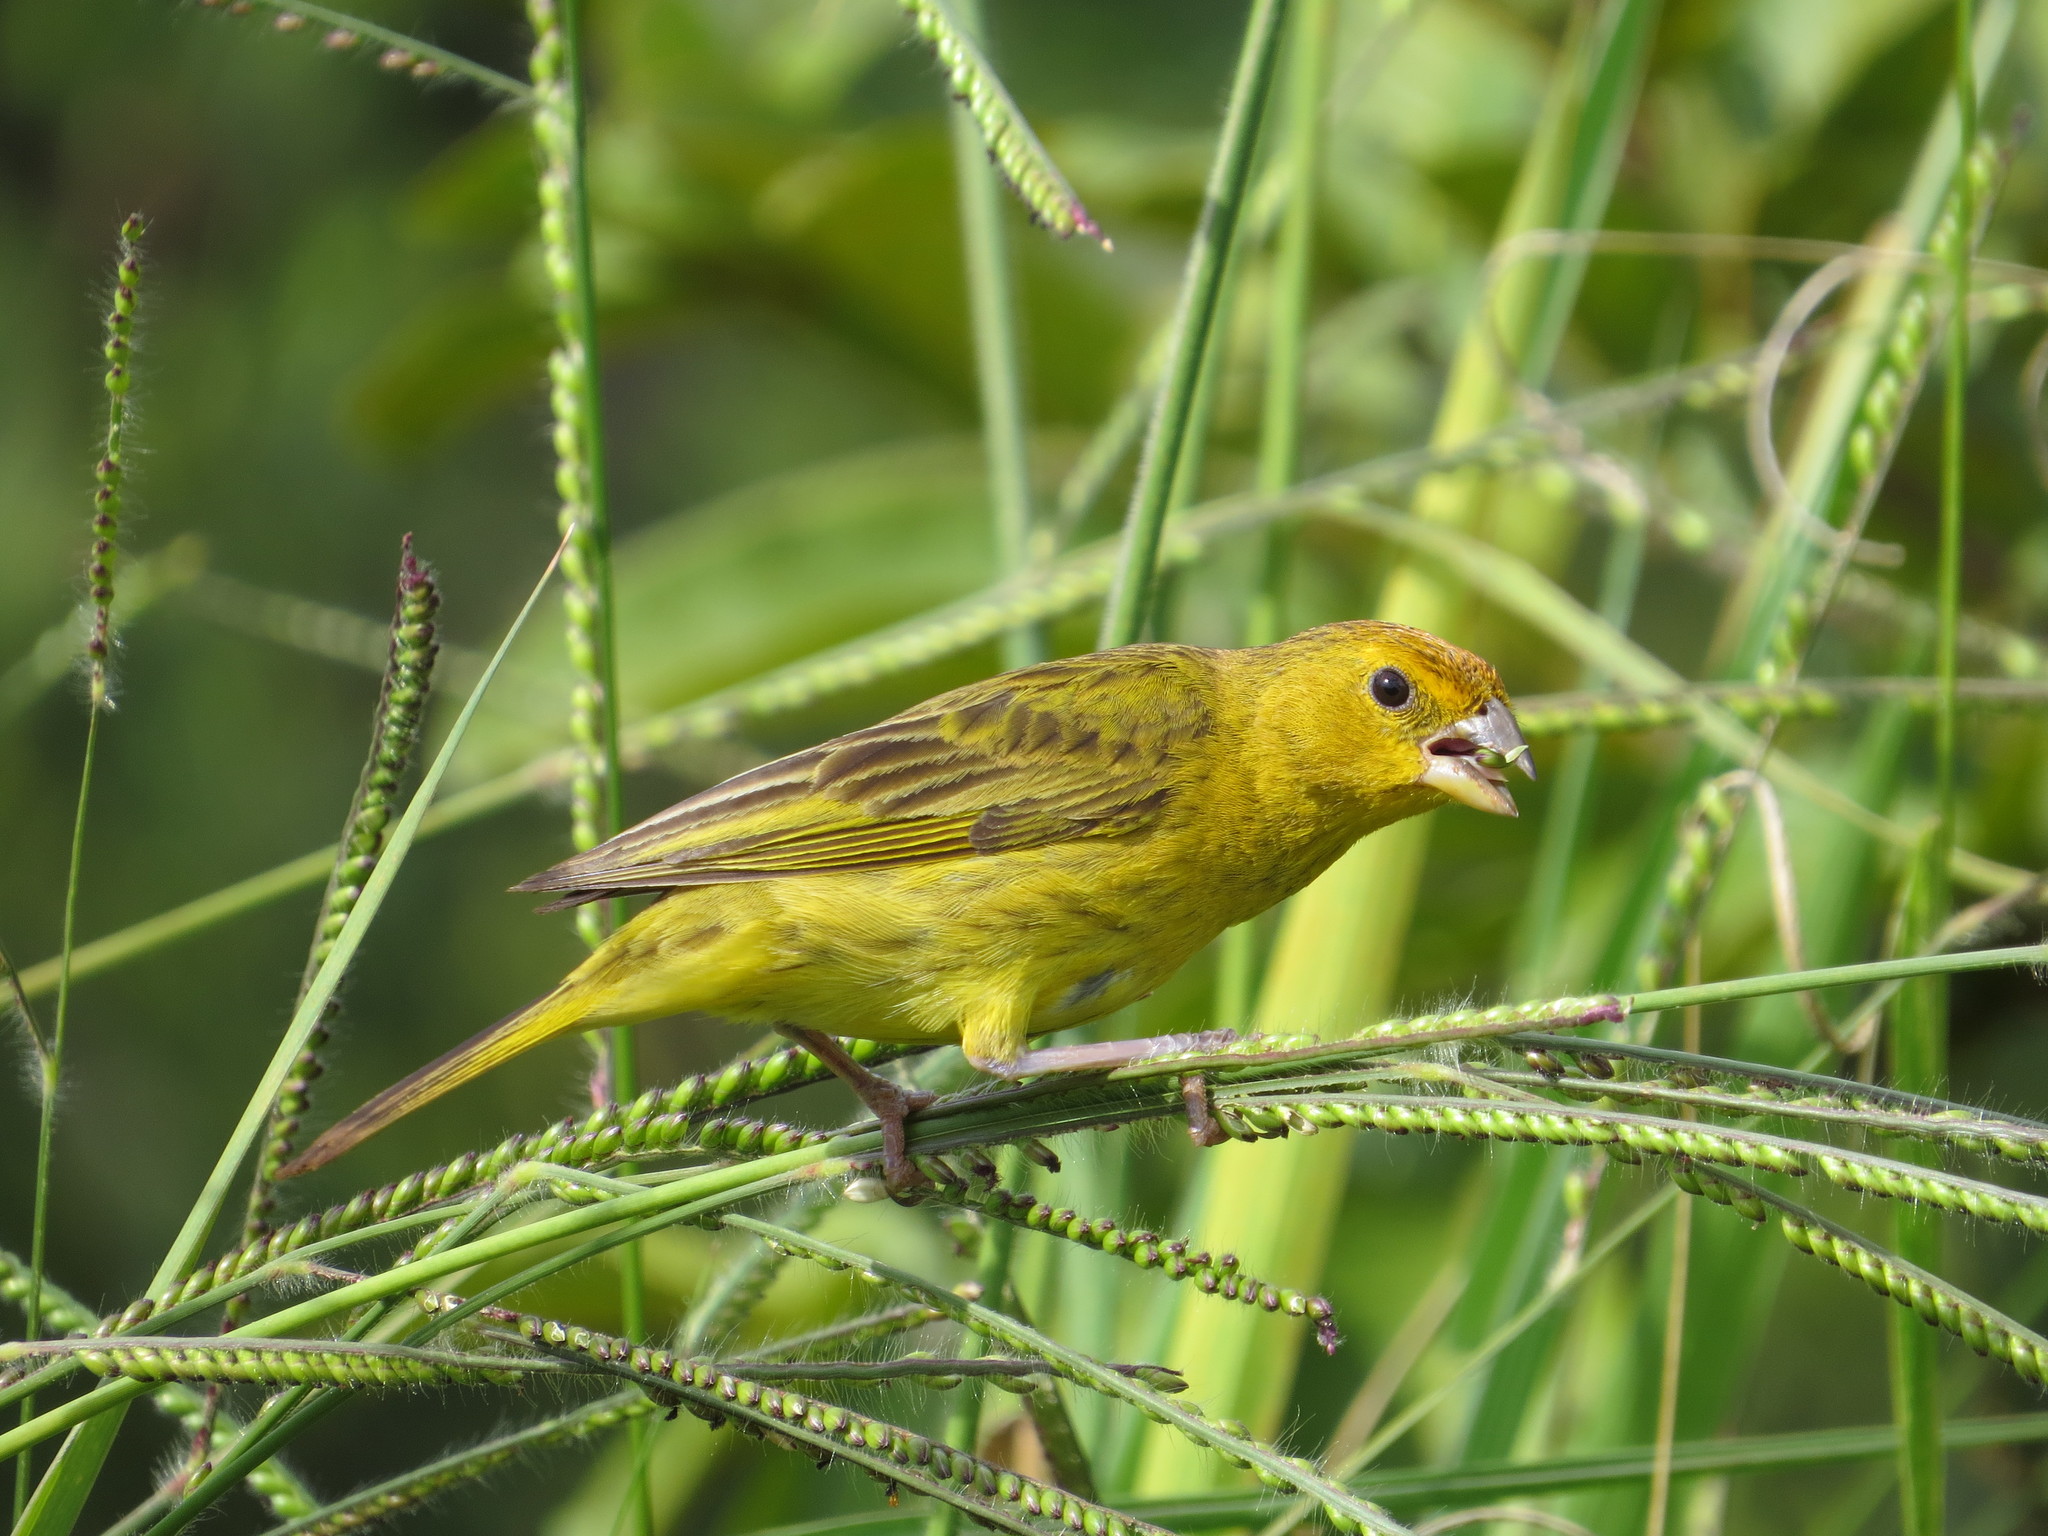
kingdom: Animalia
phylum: Chordata
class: Aves
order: Passeriformes
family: Thraupidae
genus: Sicalis
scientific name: Sicalis flaveola
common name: Saffron finch
